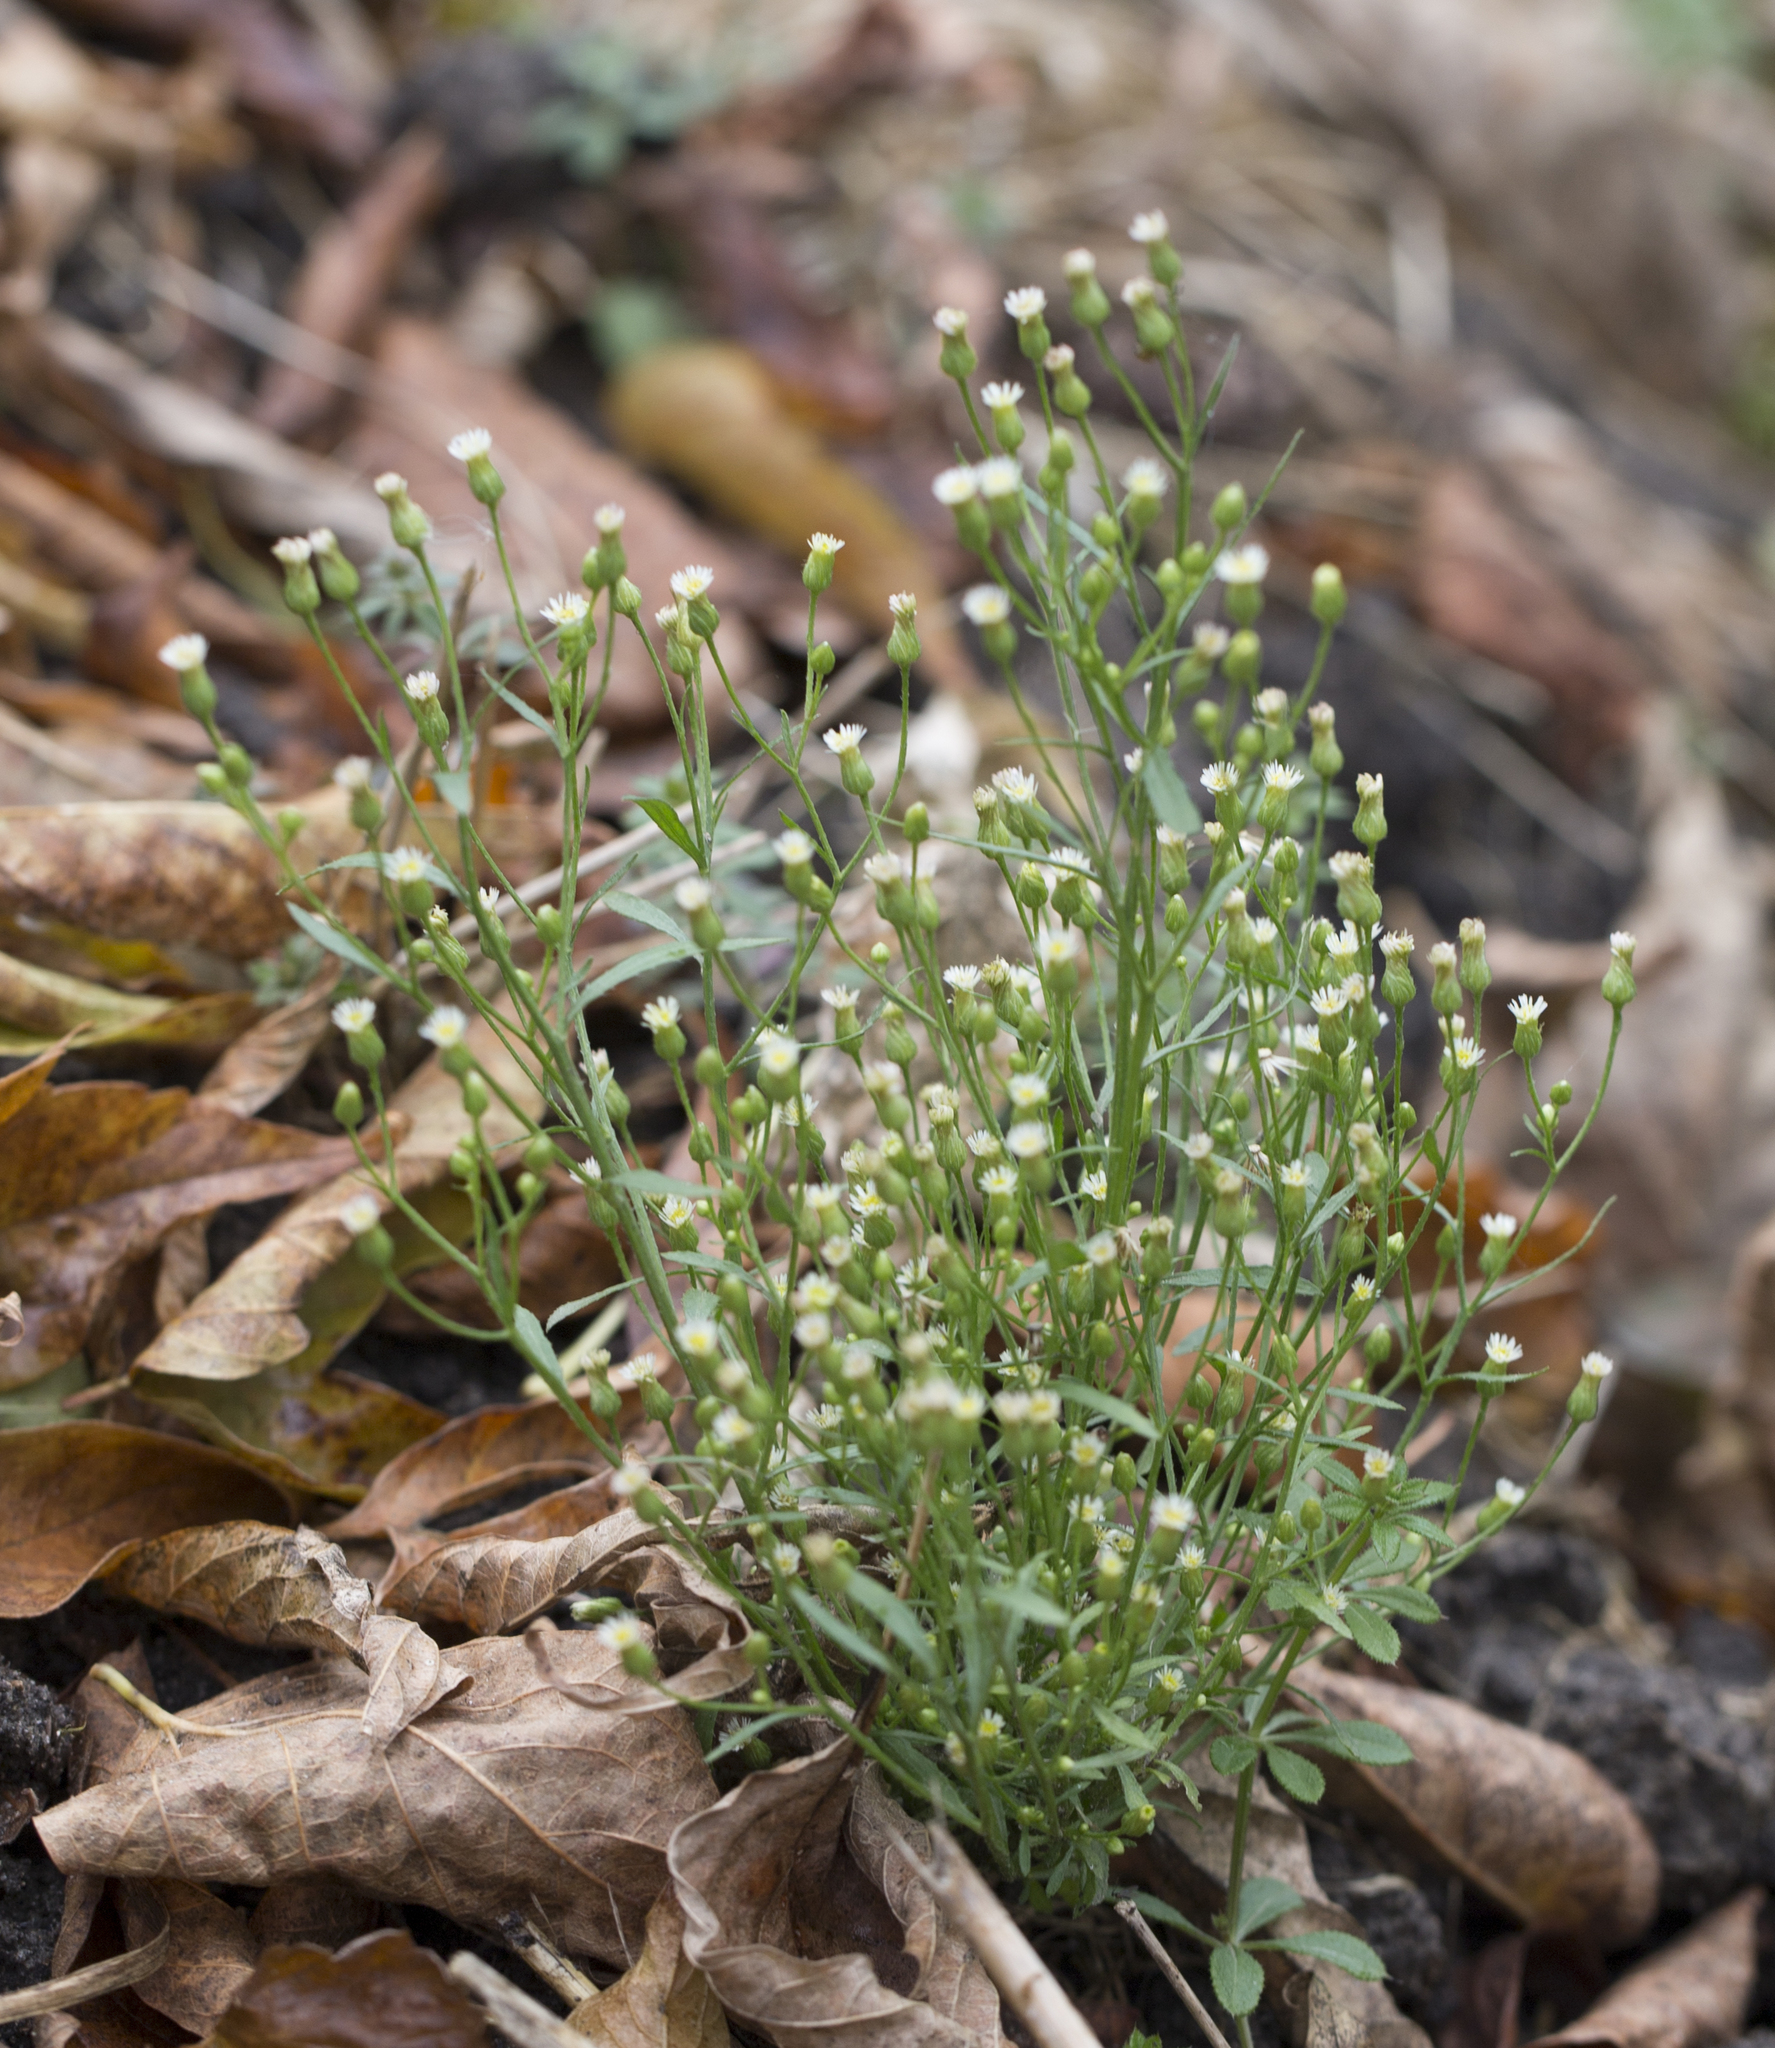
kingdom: Plantae
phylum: Tracheophyta
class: Magnoliopsida
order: Asterales
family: Asteraceae
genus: Erigeron
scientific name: Erigeron canadensis
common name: Canadian fleabane
